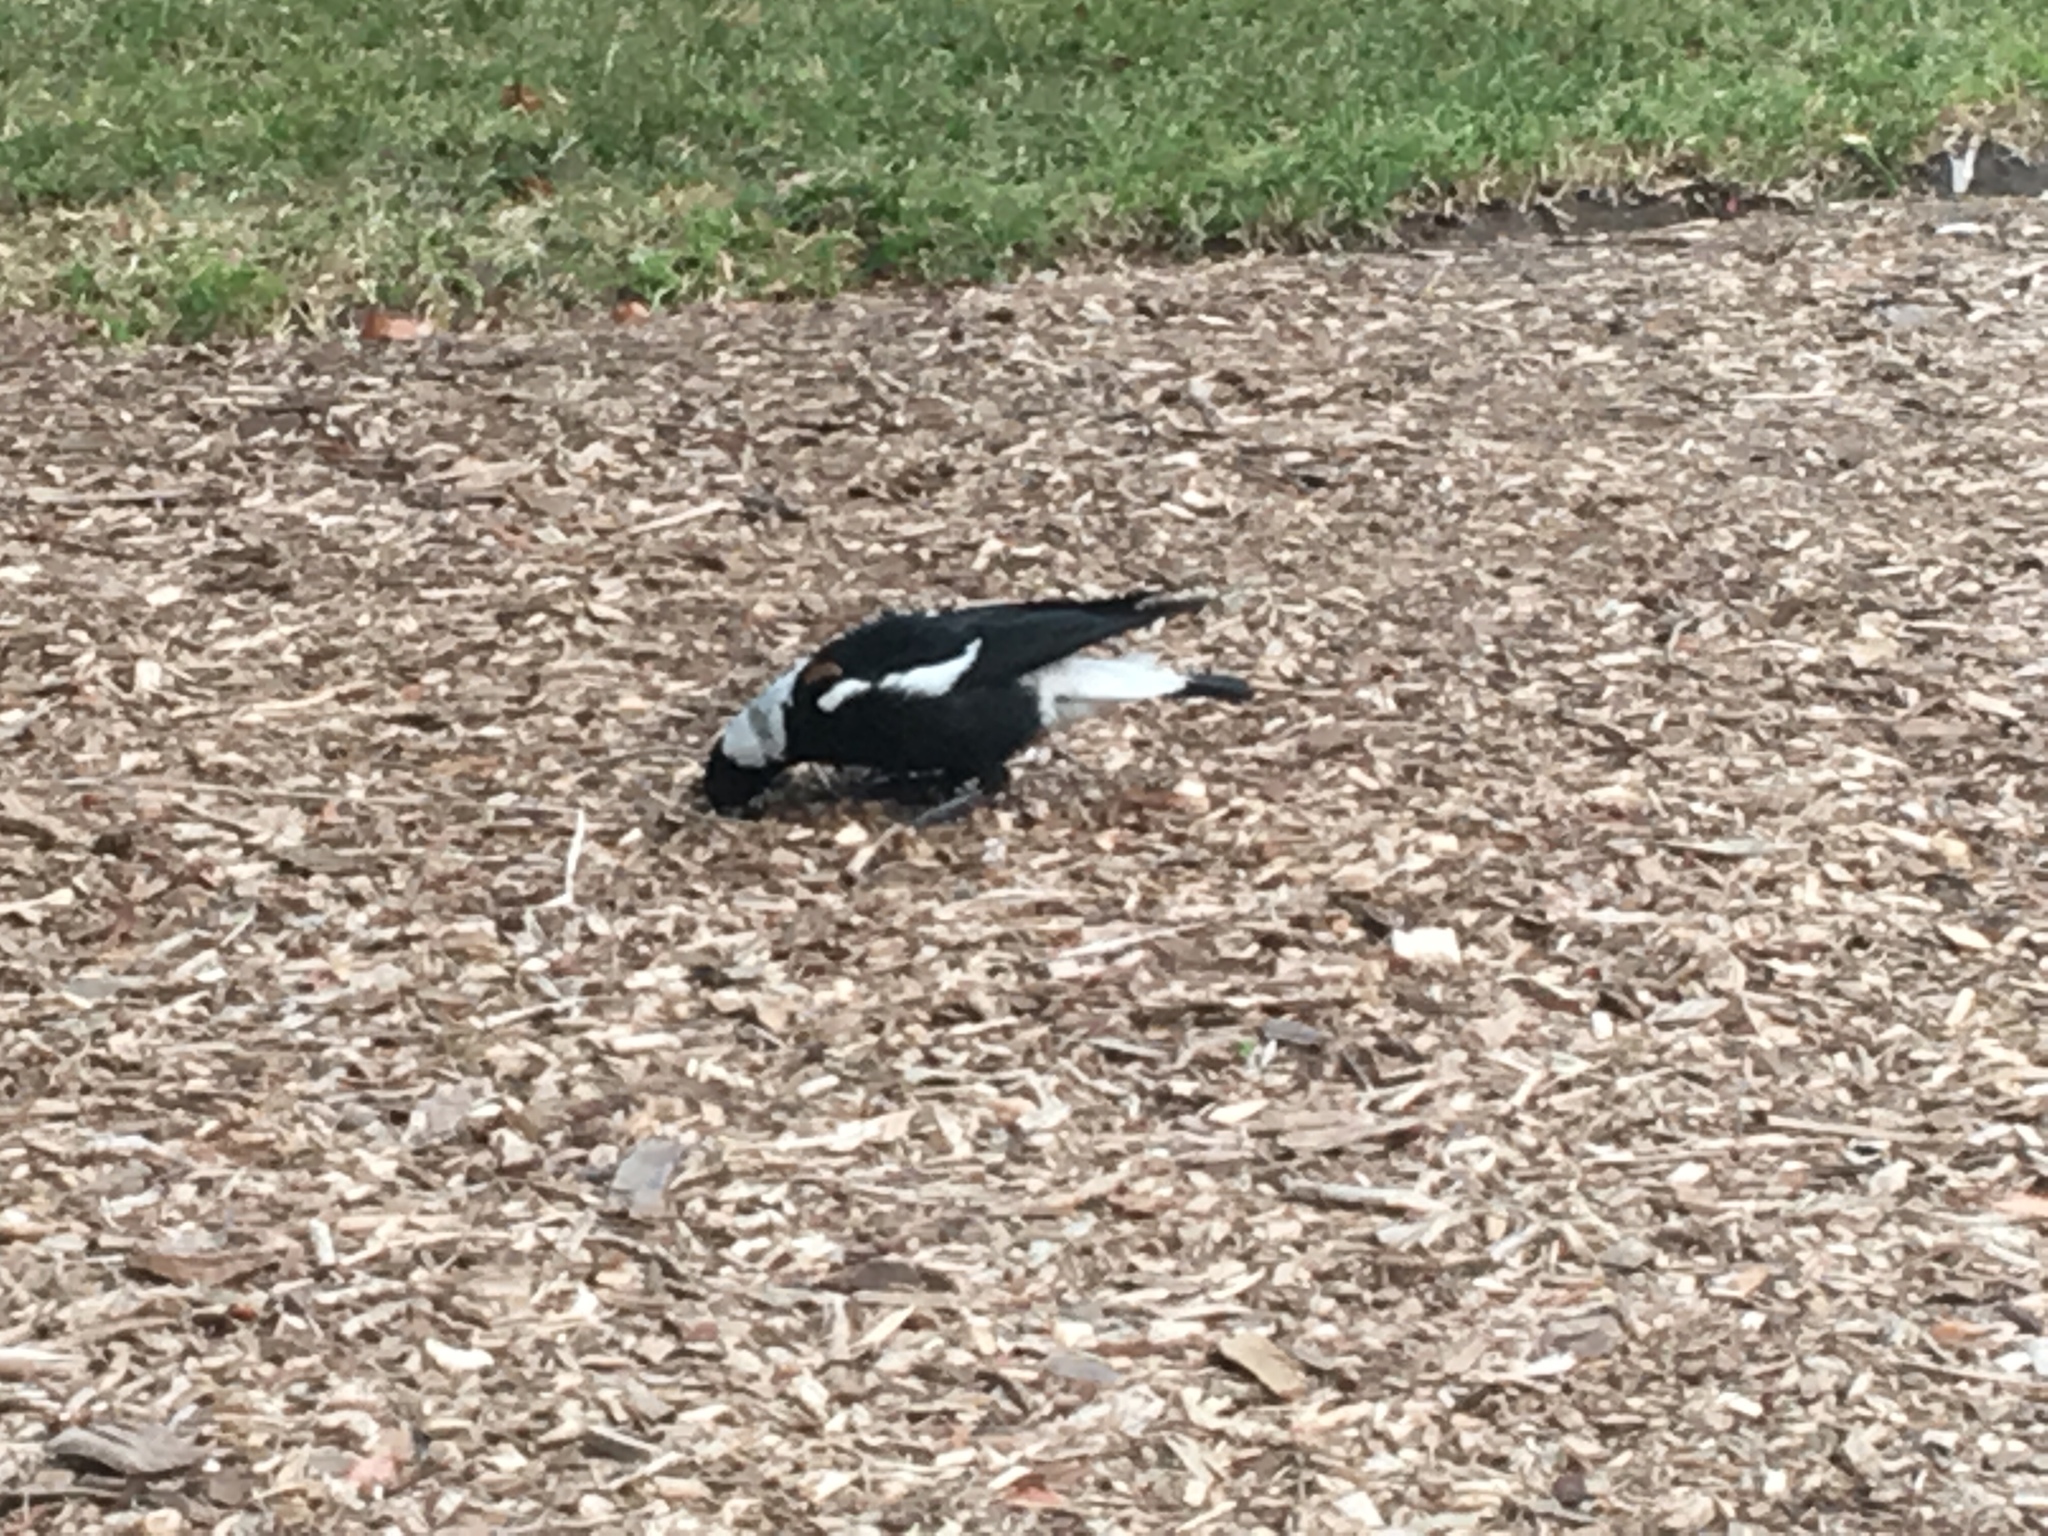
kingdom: Animalia
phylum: Chordata
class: Aves
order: Passeriformes
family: Cracticidae
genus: Gymnorhina
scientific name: Gymnorhina tibicen
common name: Australian magpie
